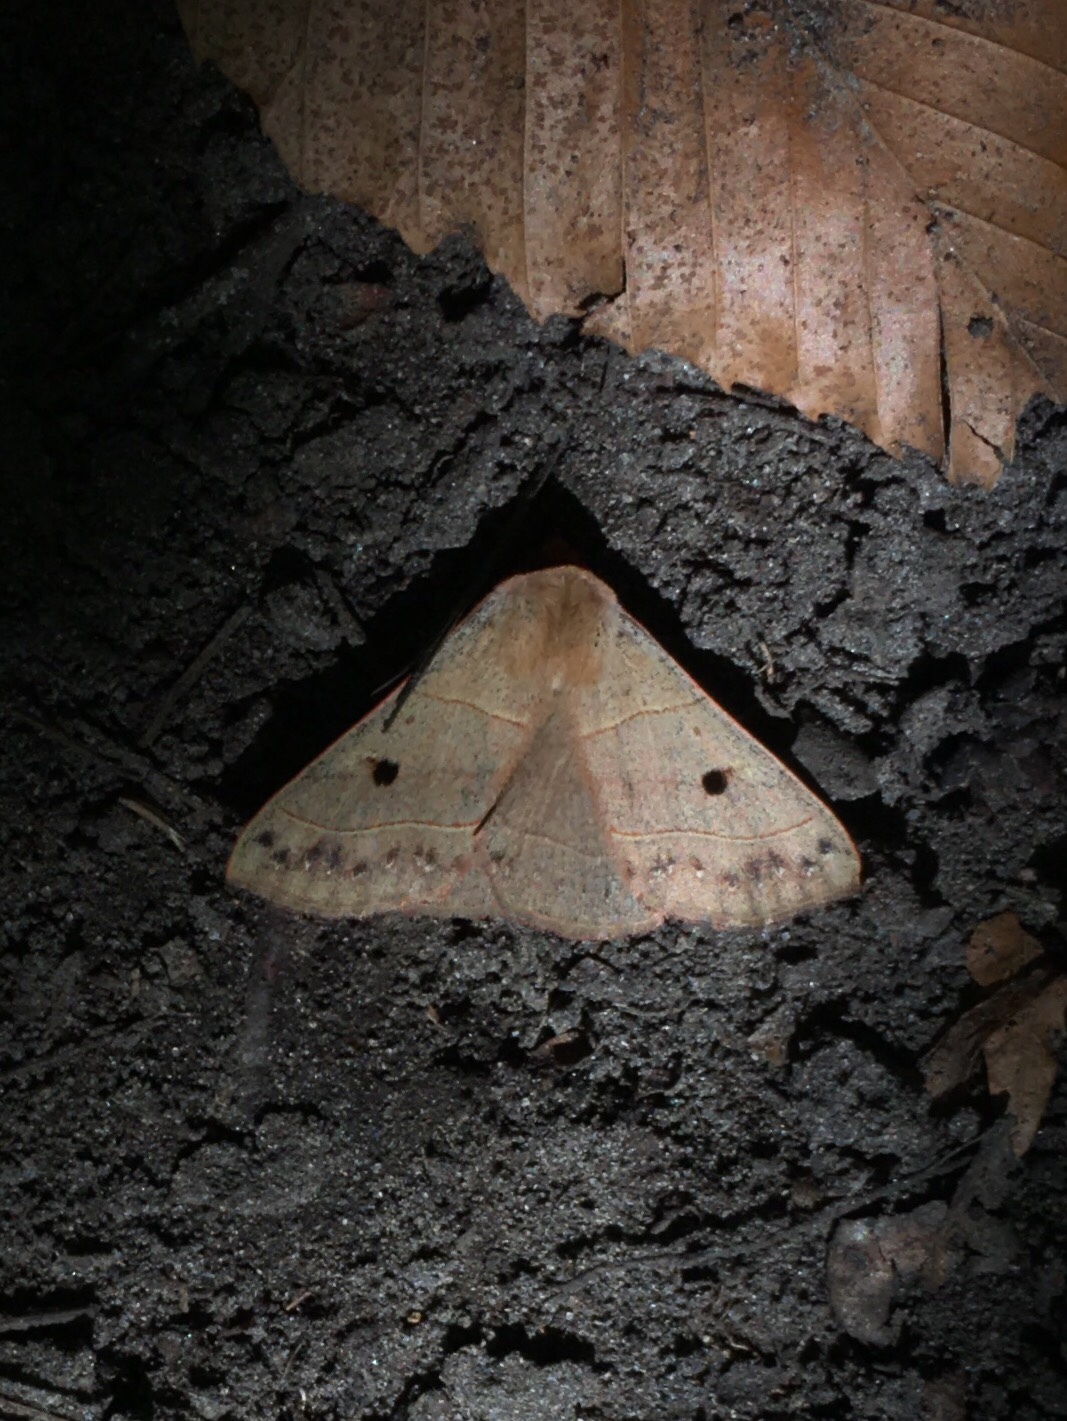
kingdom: Animalia
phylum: Arthropoda
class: Insecta
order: Lepidoptera
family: Erebidae
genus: Panopoda
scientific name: Panopoda rufimargo
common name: Red-lined panopoda moth
